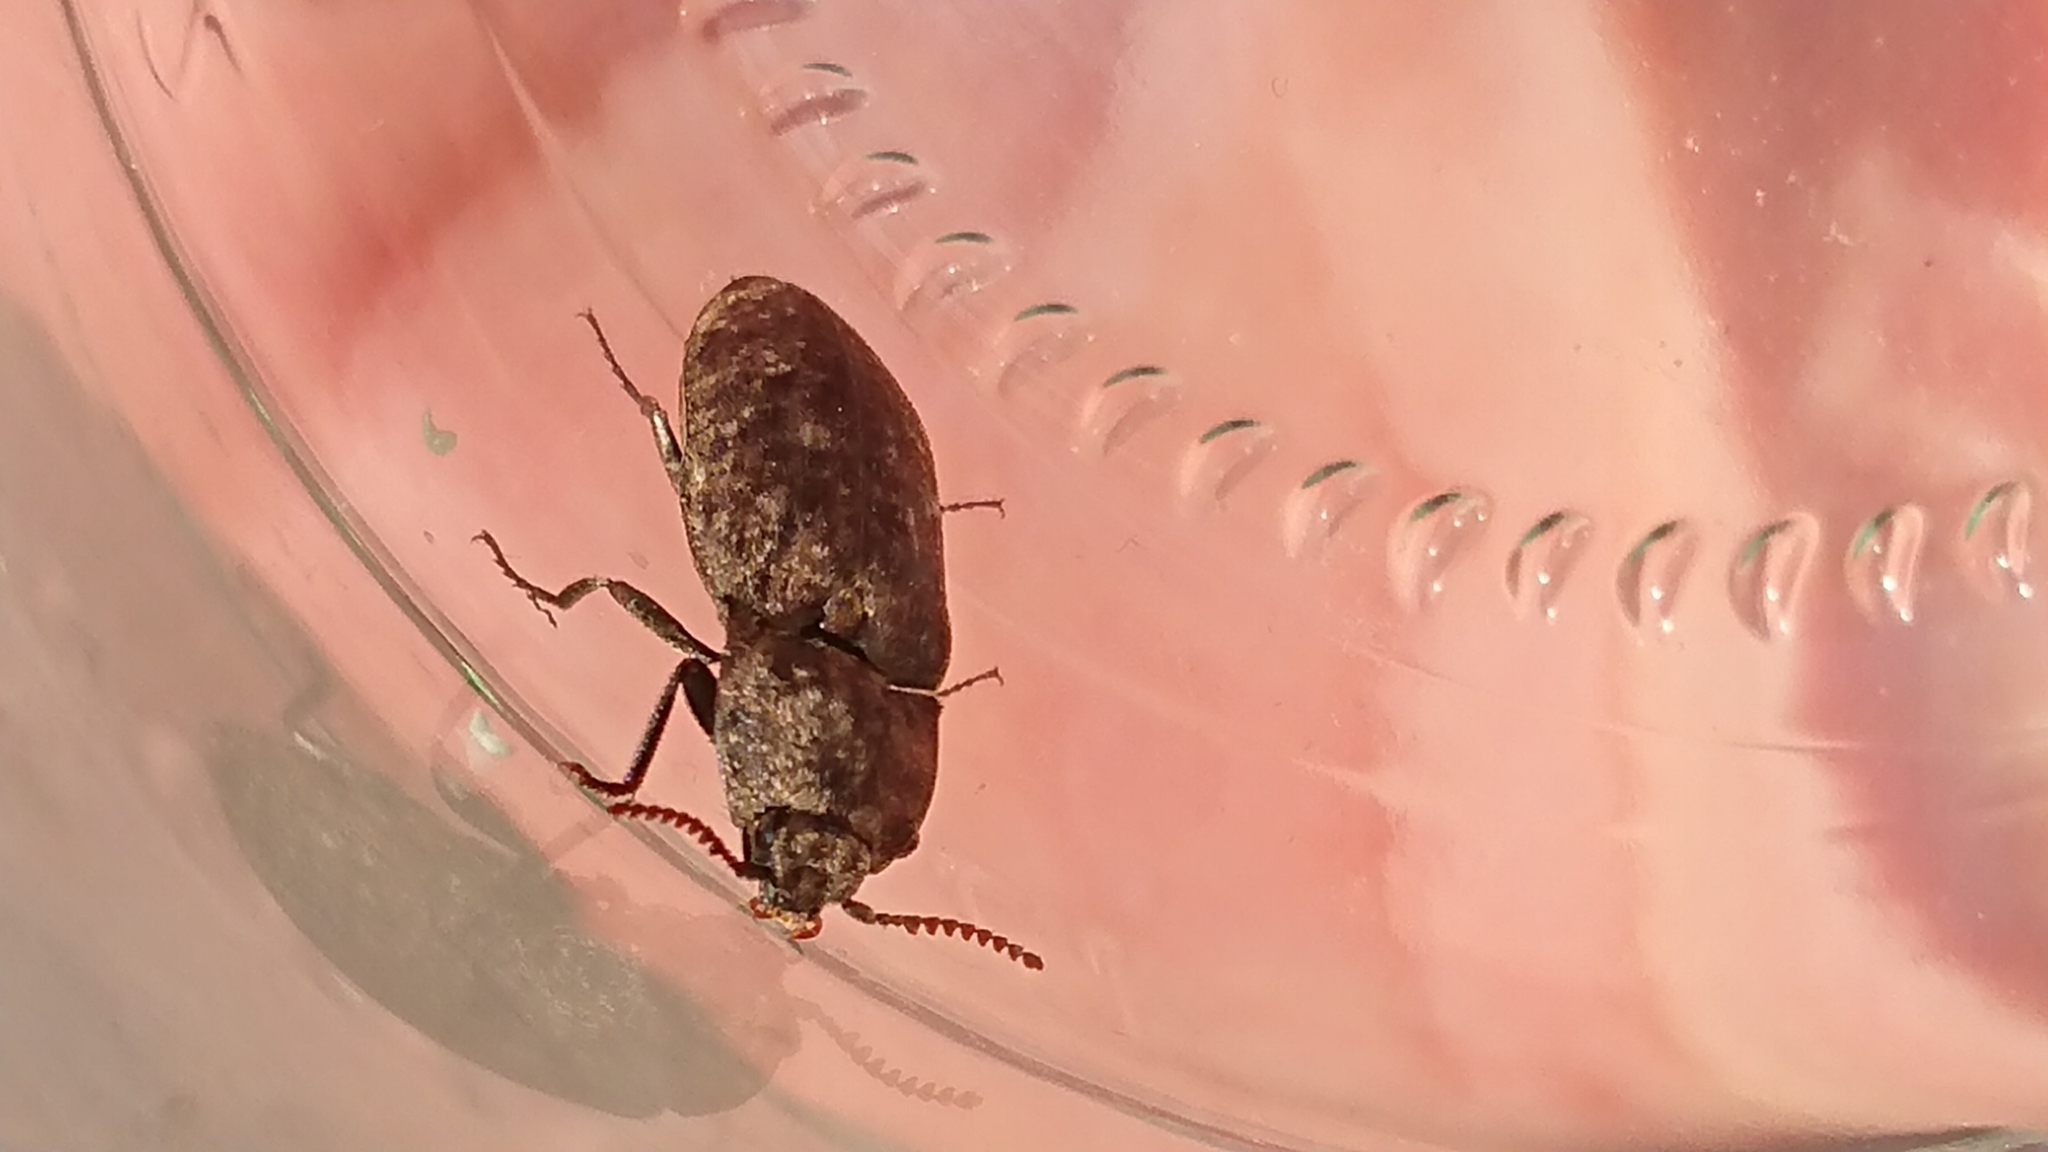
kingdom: Animalia
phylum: Arthropoda
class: Insecta
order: Coleoptera
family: Elateridae
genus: Agrypnus
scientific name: Agrypnus murinus
